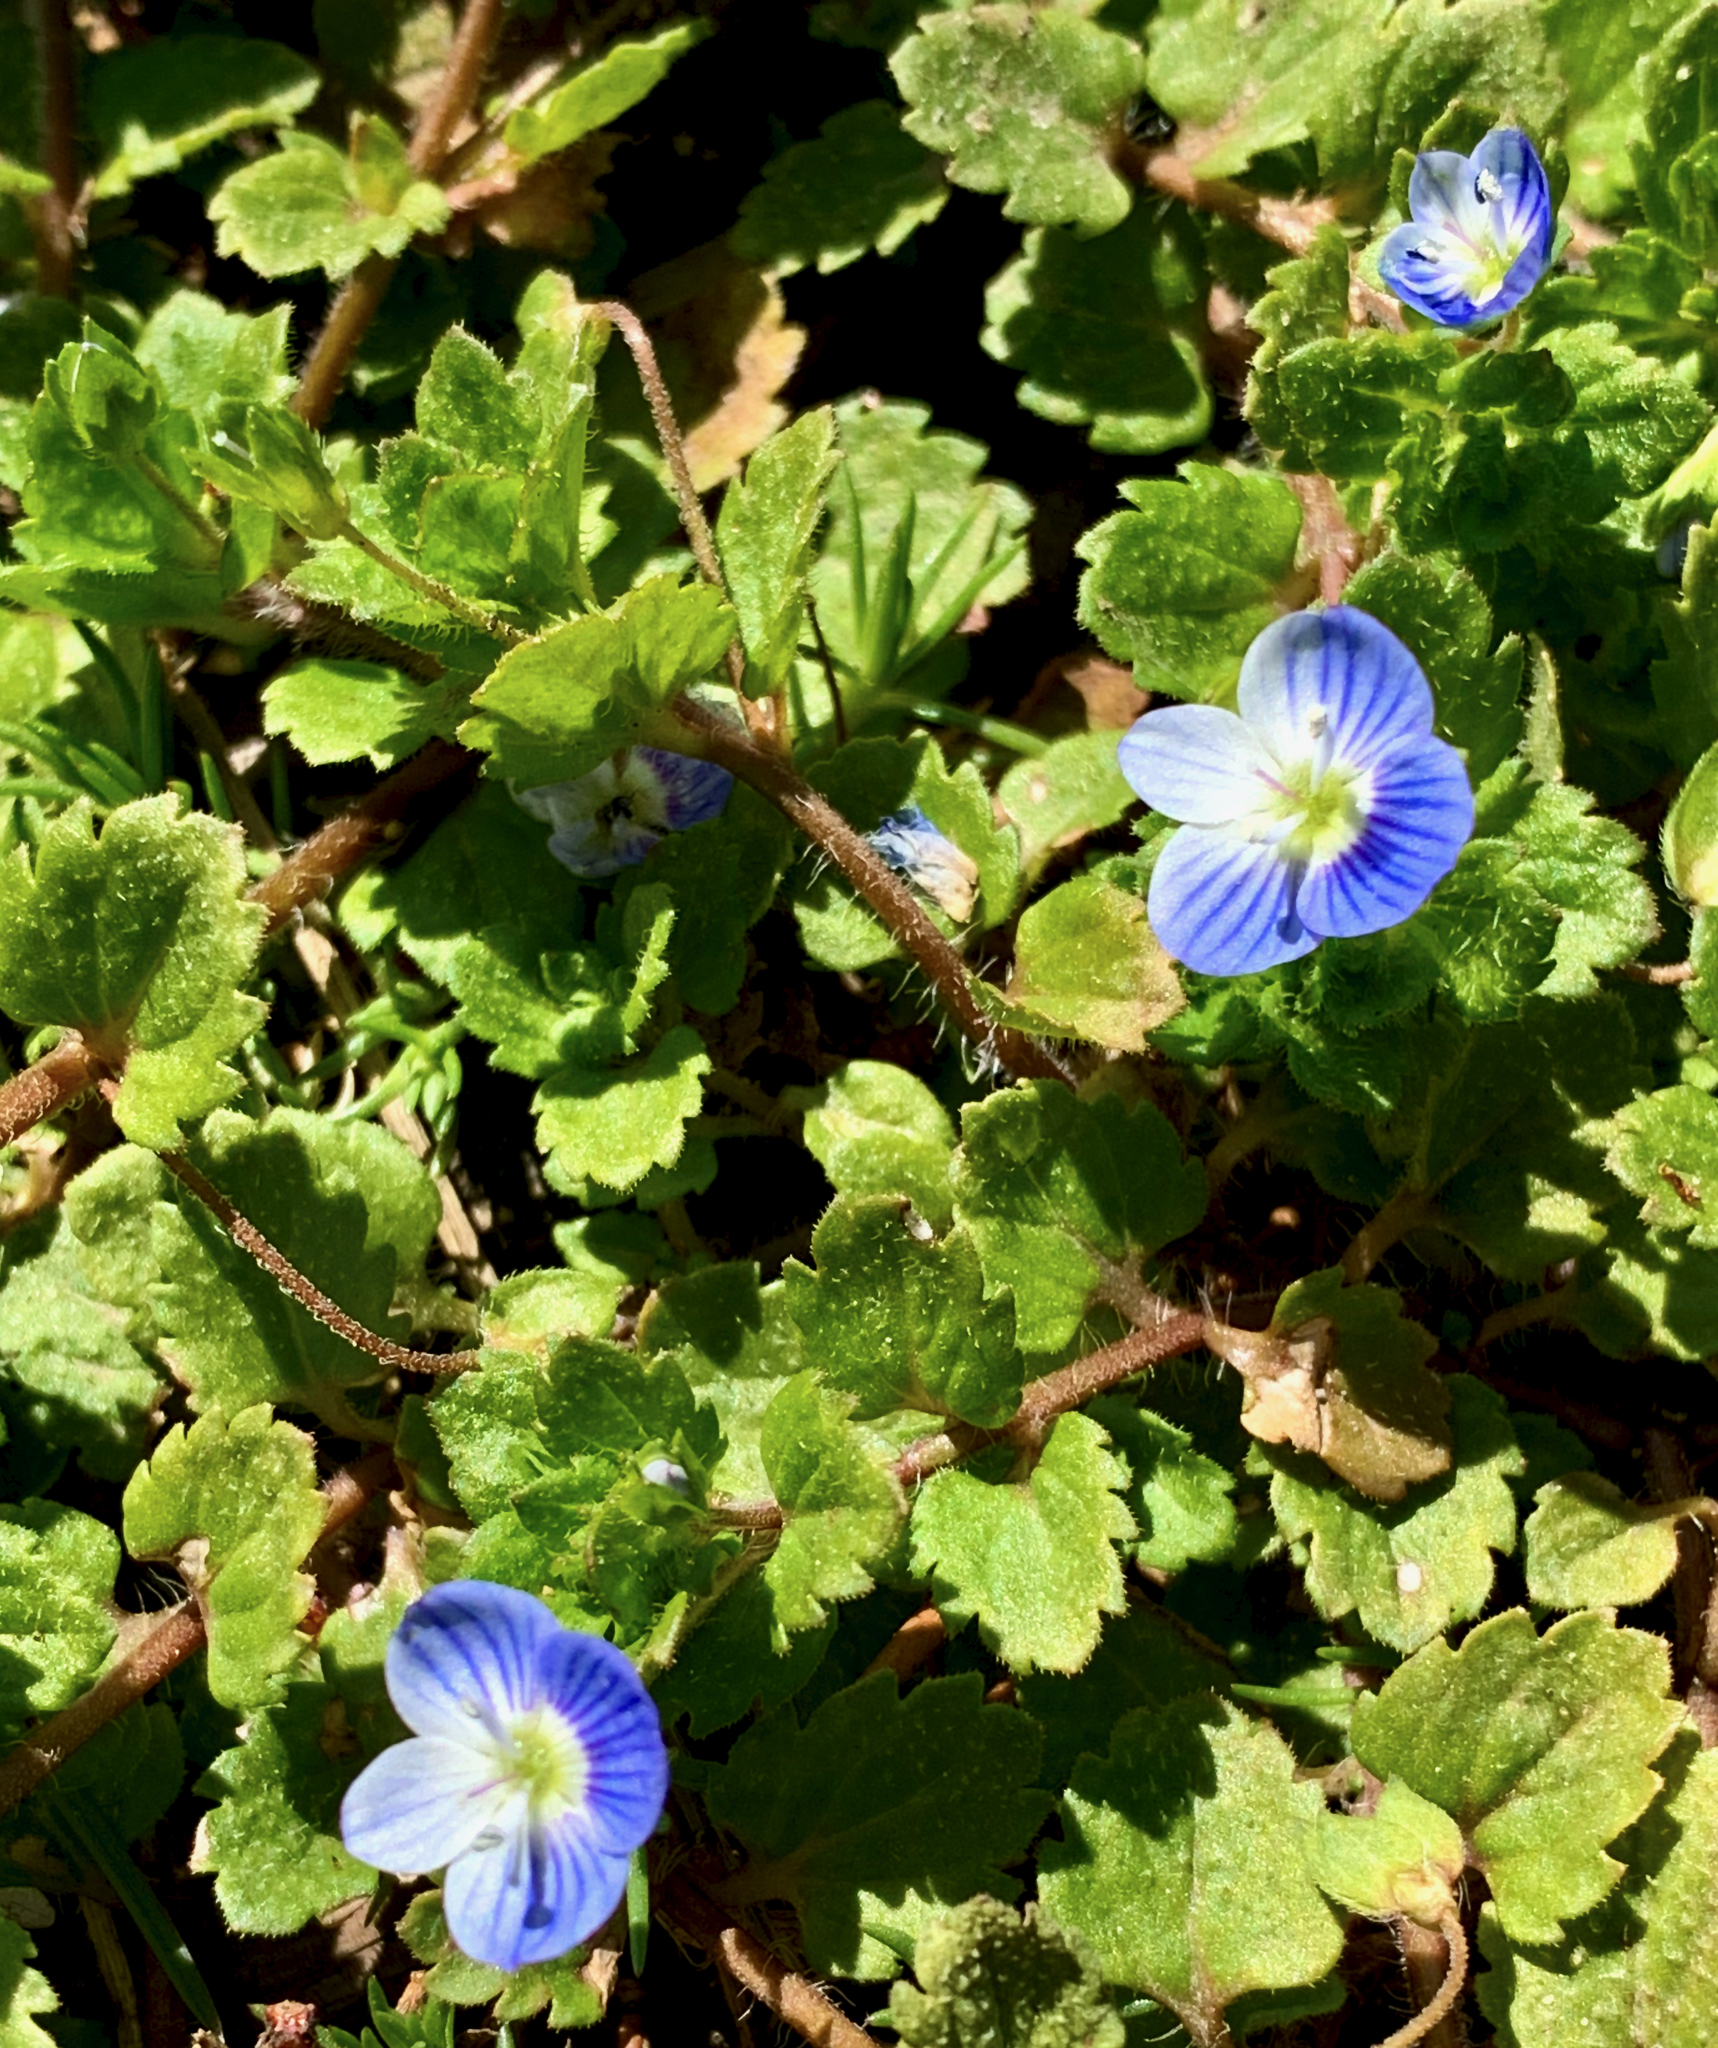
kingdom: Plantae
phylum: Tracheophyta
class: Magnoliopsida
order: Lamiales
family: Plantaginaceae
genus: Veronica
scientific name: Veronica persica
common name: Common field-speedwell
